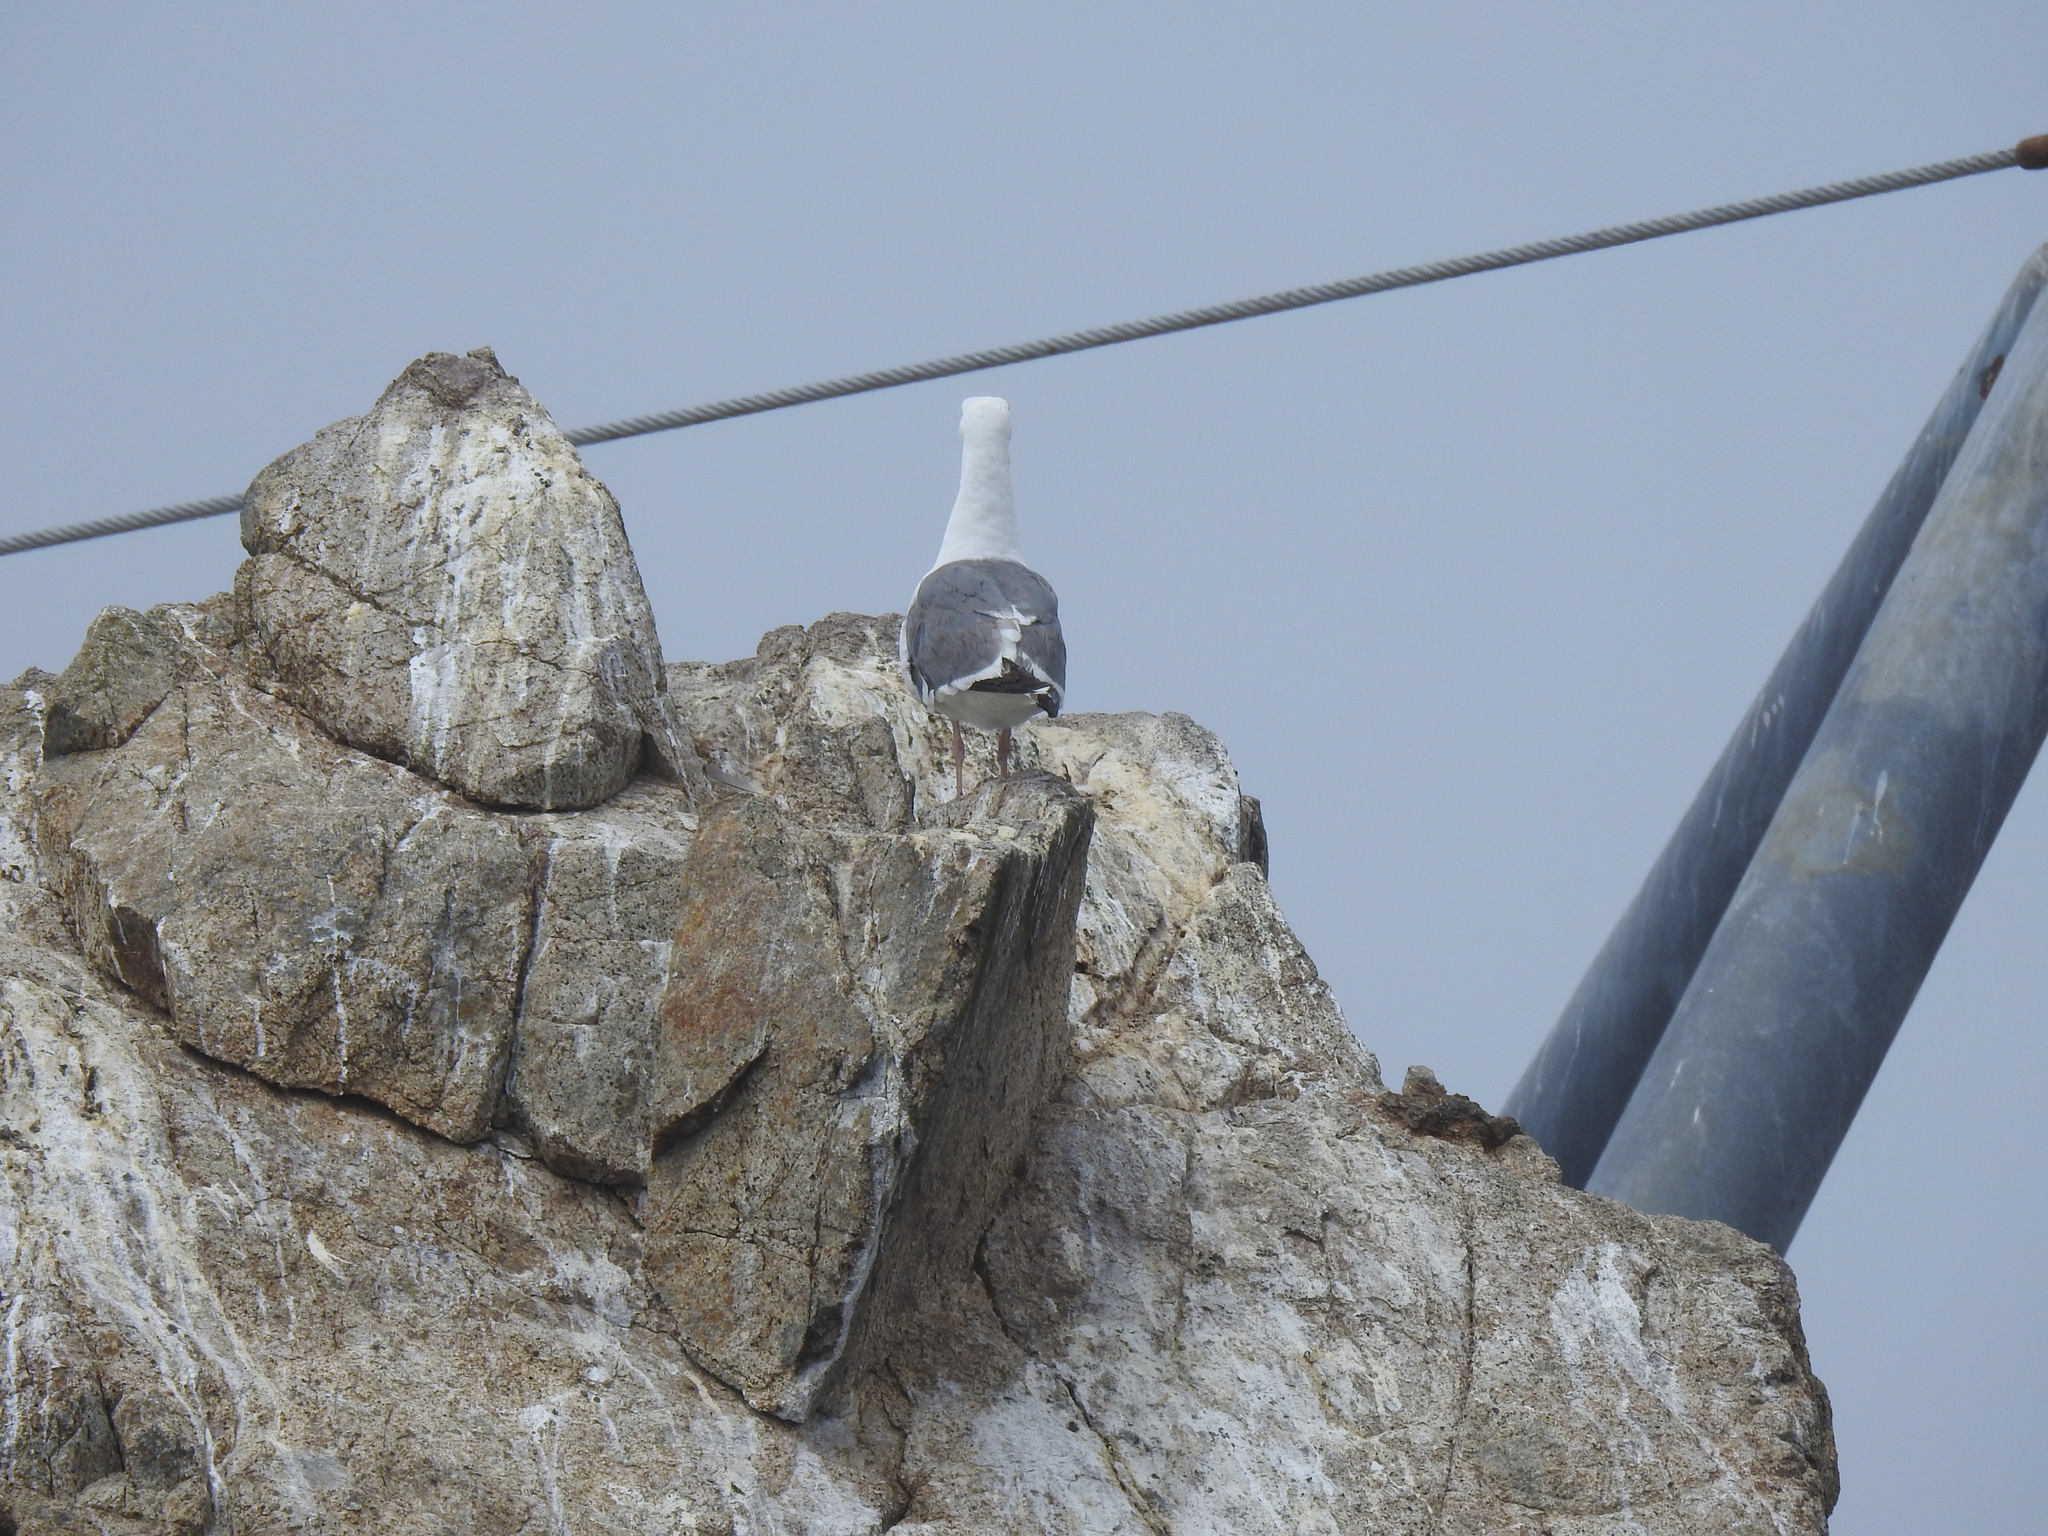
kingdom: Animalia
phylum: Chordata
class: Aves
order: Charadriiformes
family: Laridae
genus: Larus
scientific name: Larus occidentalis
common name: Western gull
